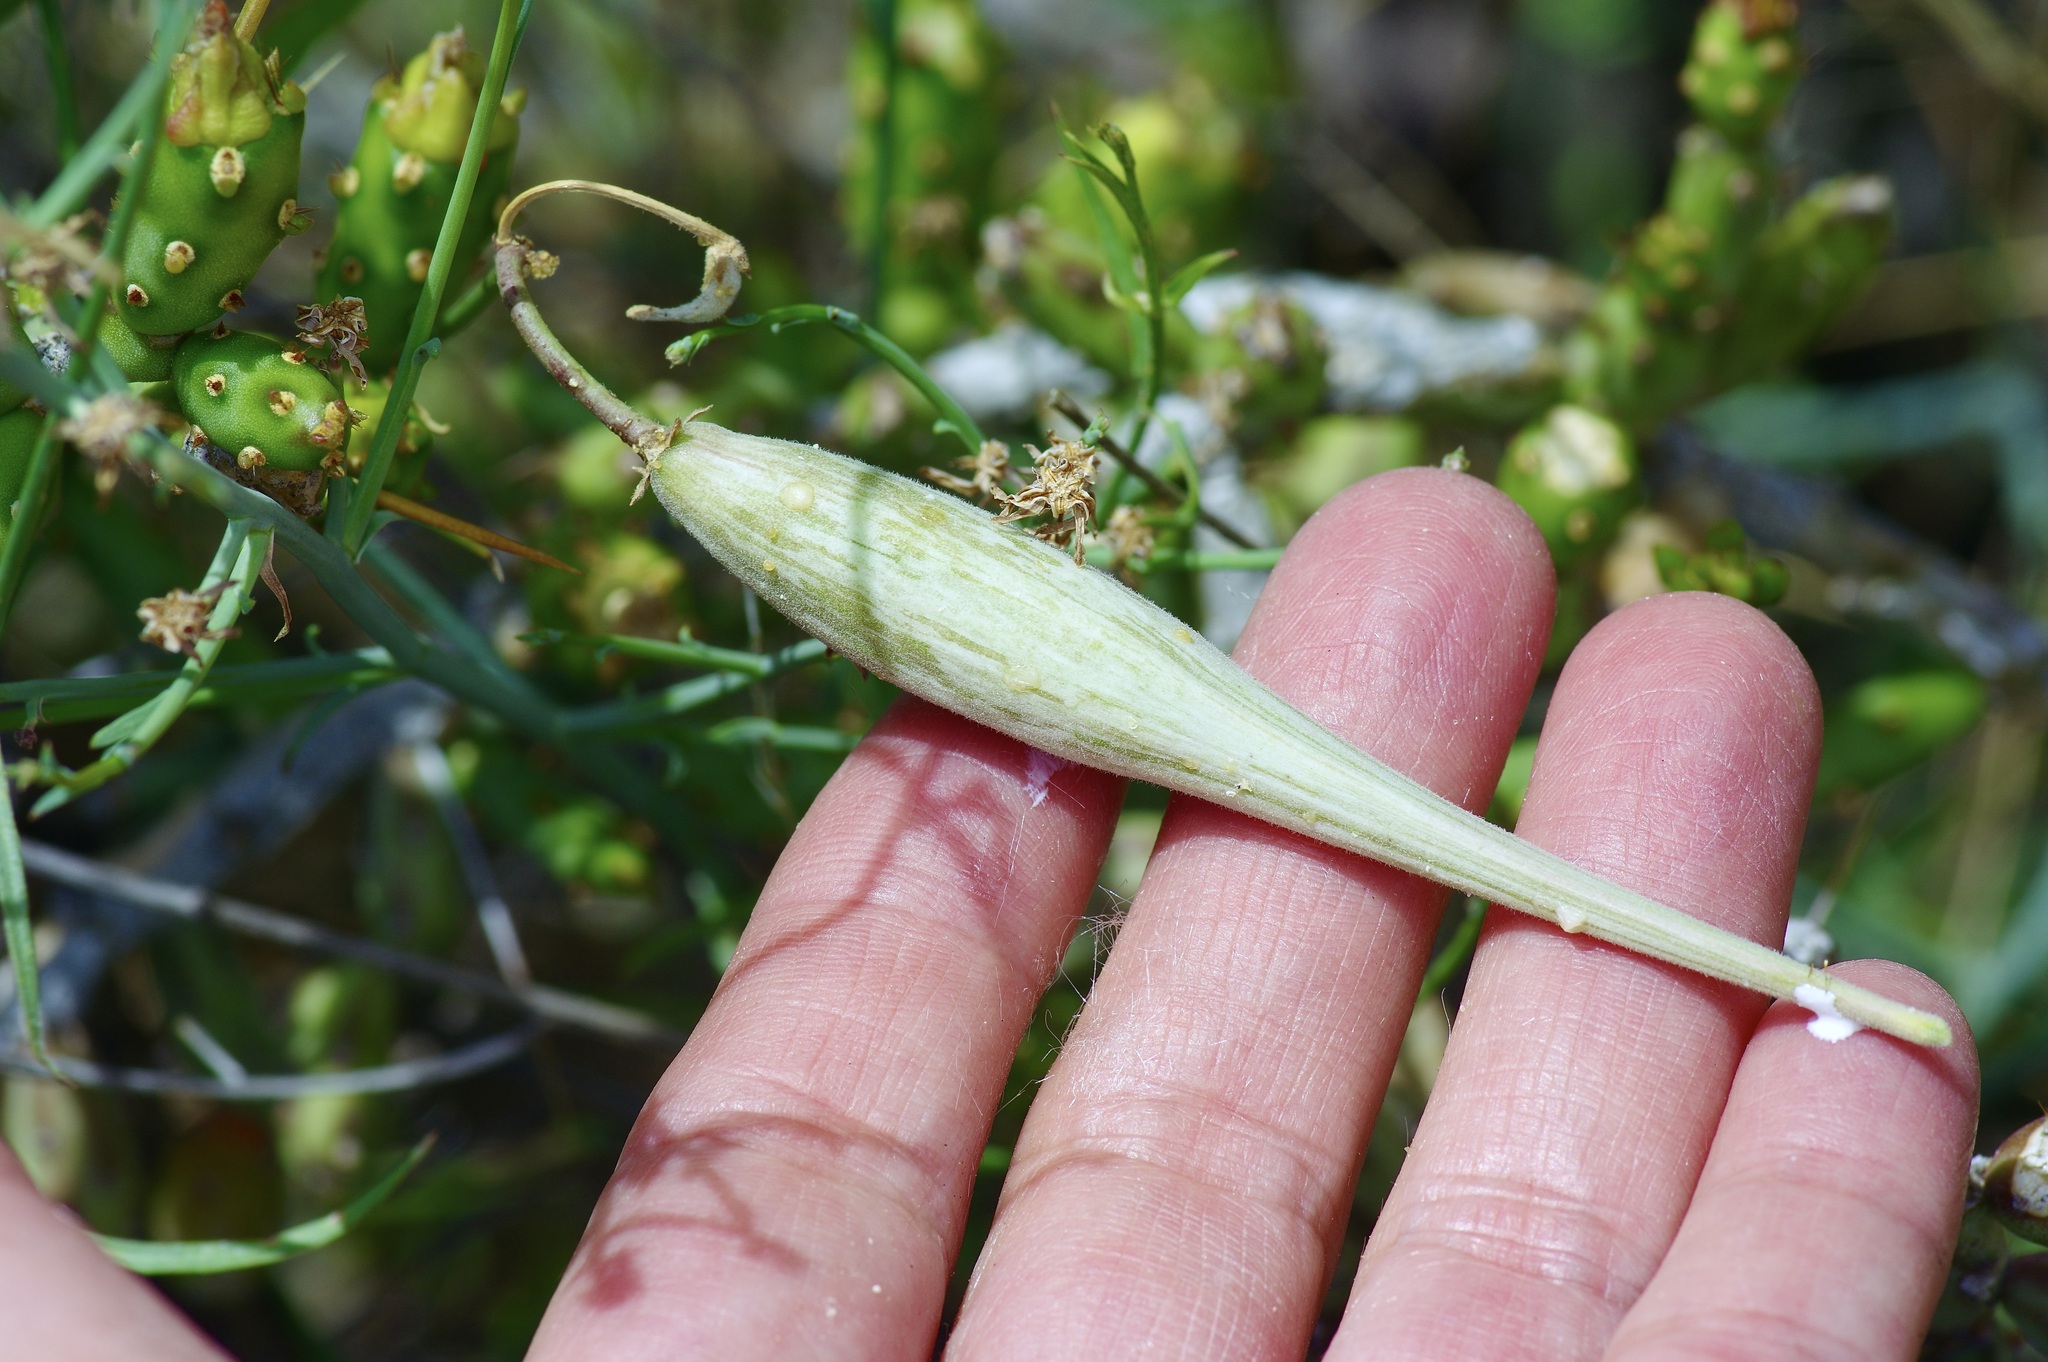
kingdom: Plantae
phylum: Tracheophyta
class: Magnoliopsida
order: Gentianales
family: Apocynaceae
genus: Funastrum
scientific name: Funastrum heterophyllum
